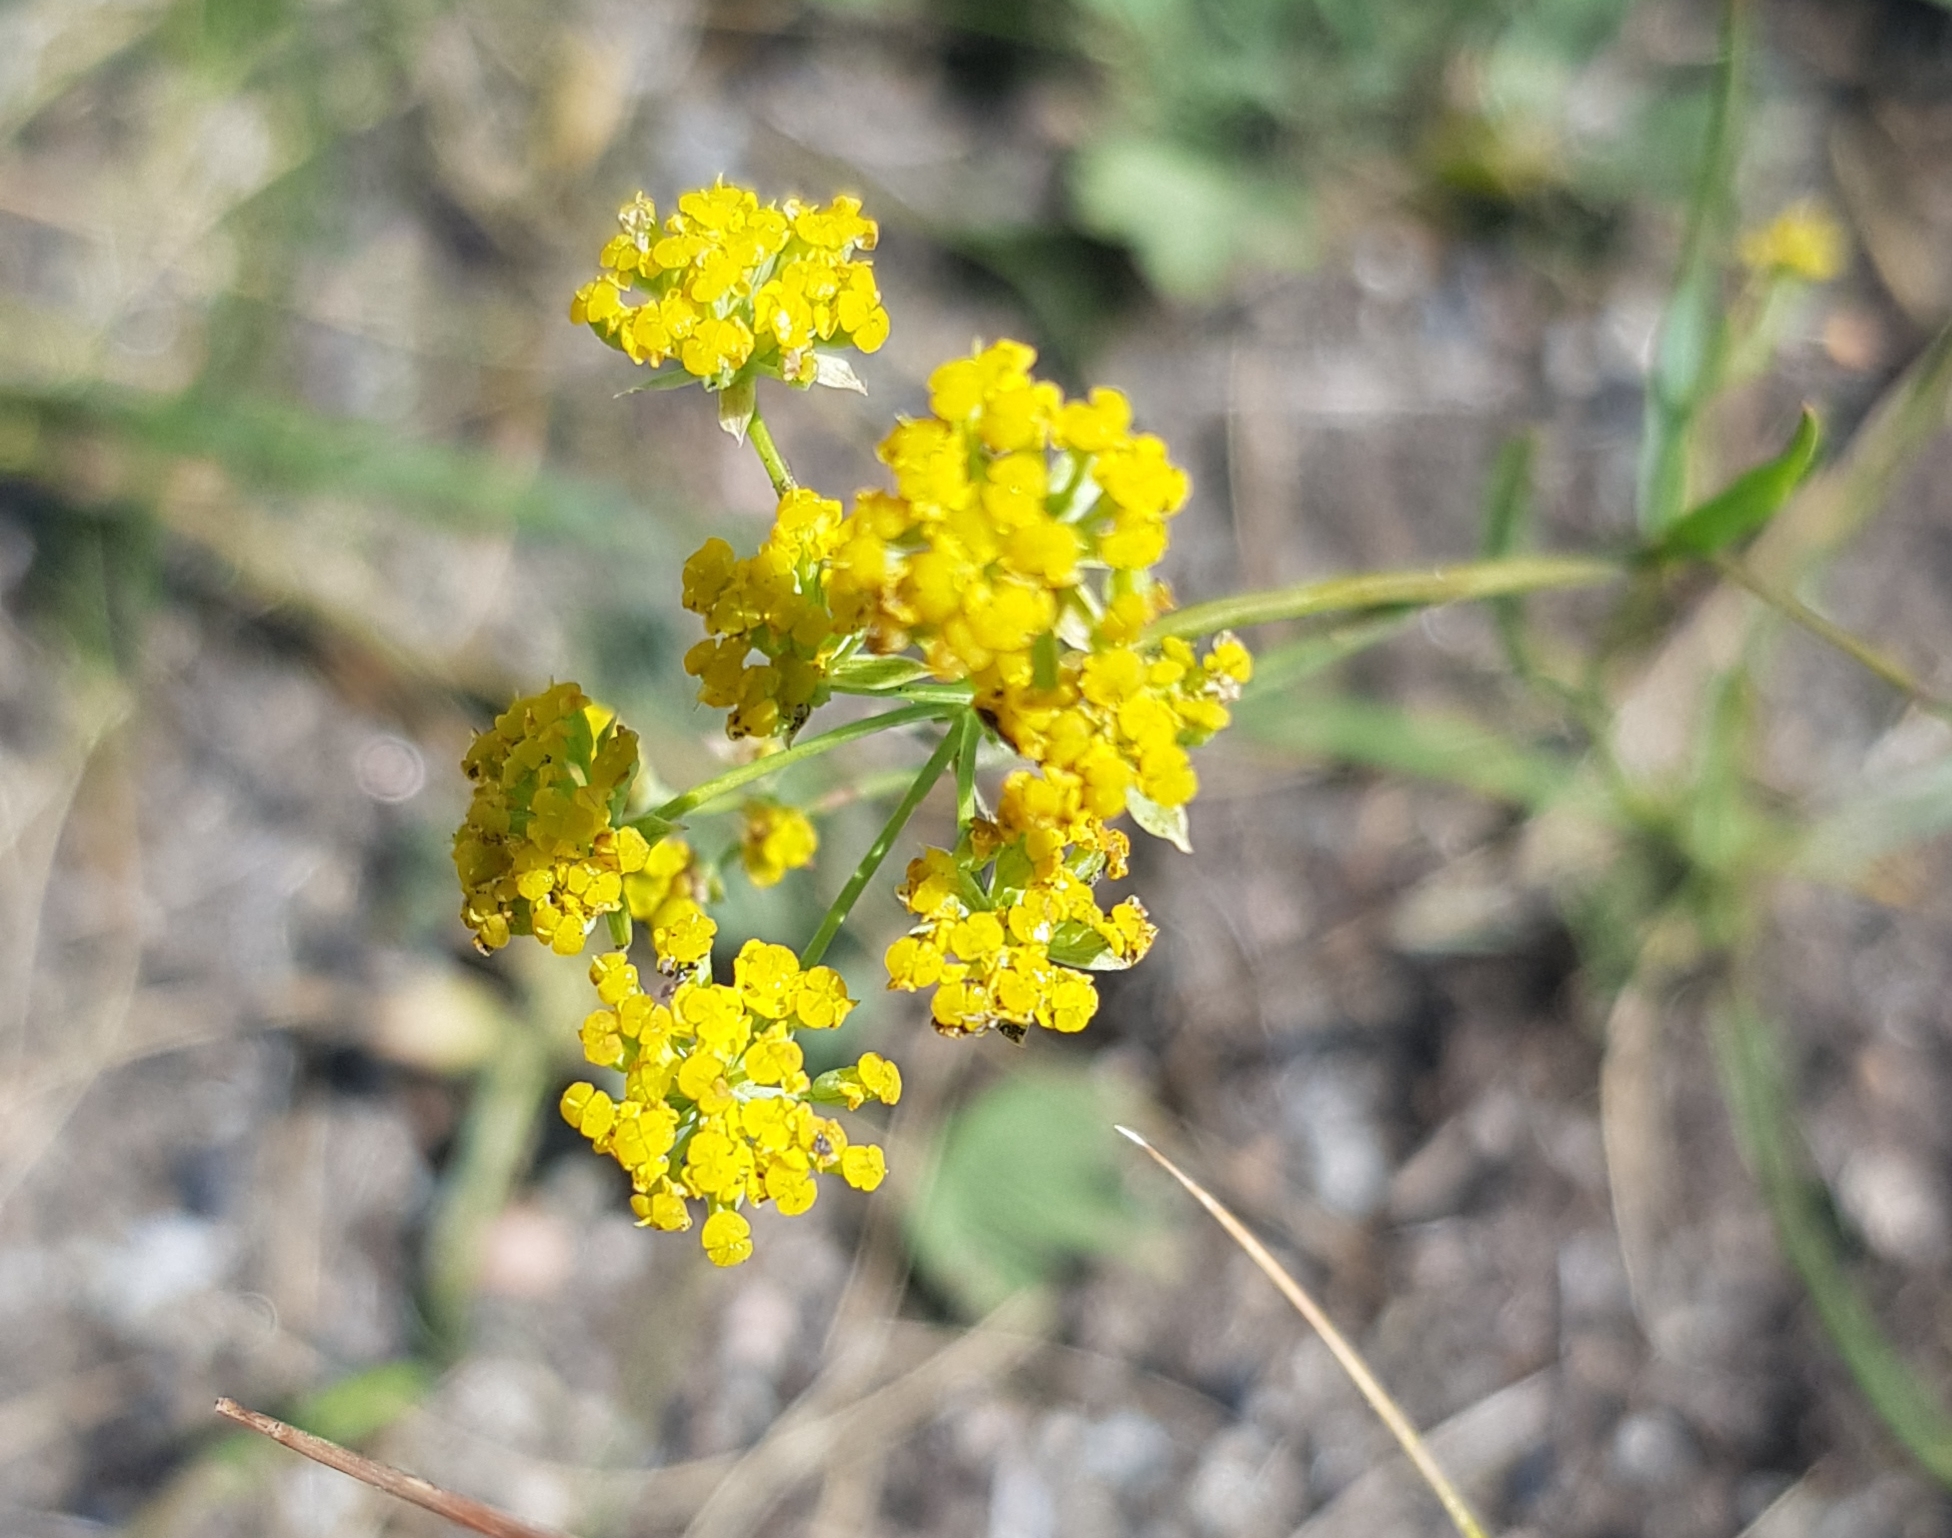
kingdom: Plantae
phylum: Tracheophyta
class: Magnoliopsida
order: Apiales
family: Apiaceae
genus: Bupleurum
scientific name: Bupleurum bicaule
